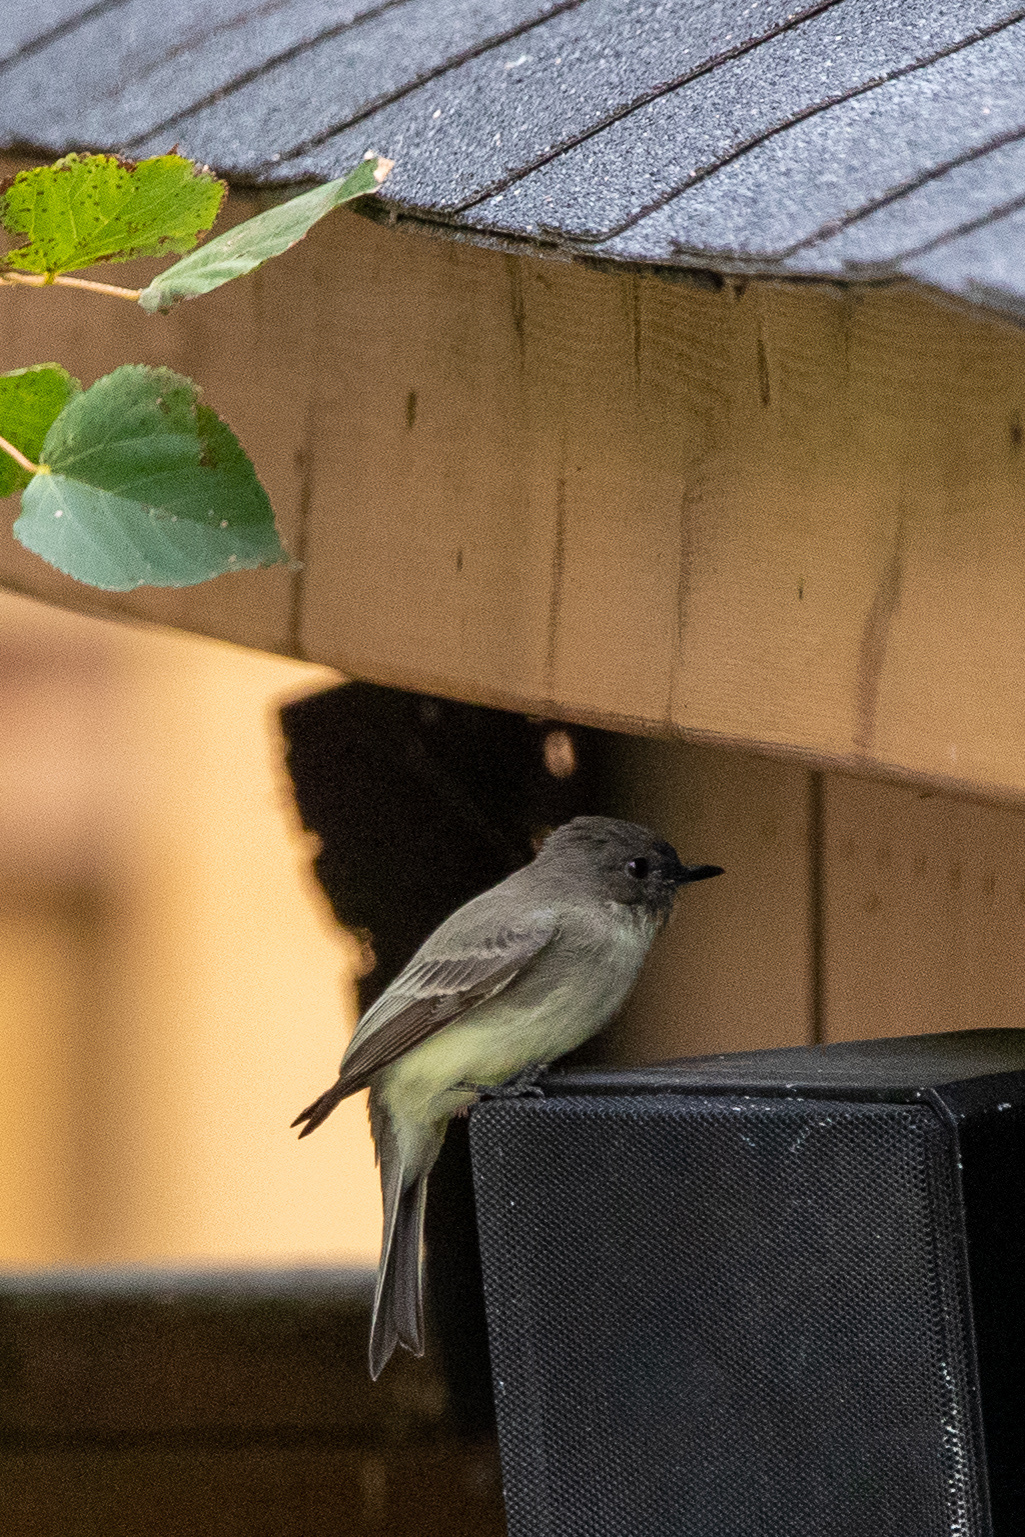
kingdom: Animalia
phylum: Chordata
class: Aves
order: Passeriformes
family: Tyrannidae
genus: Sayornis
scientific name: Sayornis phoebe
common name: Eastern phoebe
